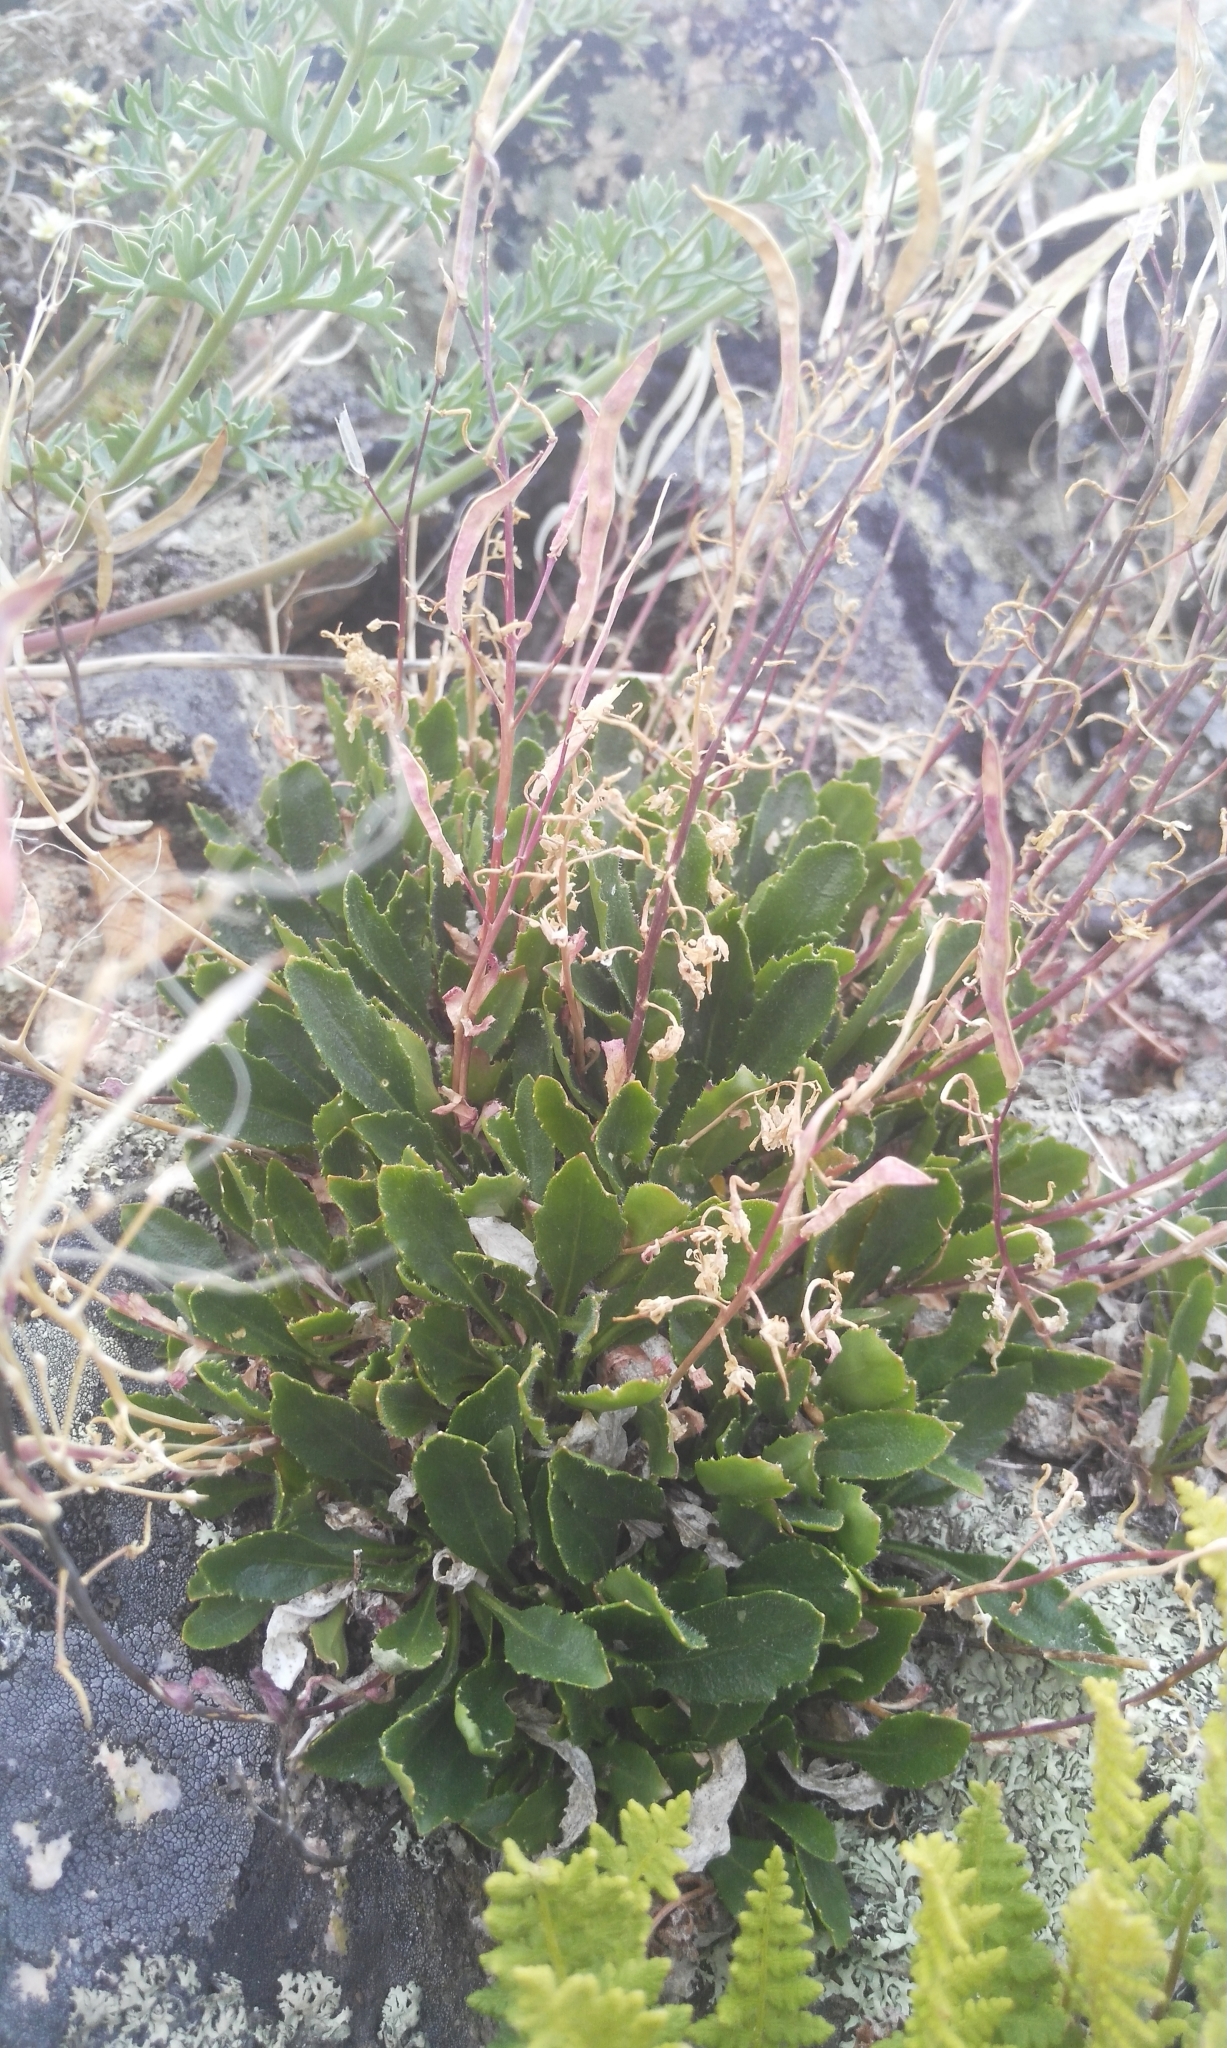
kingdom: Plantae
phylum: Tracheophyta
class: Magnoliopsida
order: Brassicales
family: Brassicaceae
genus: Borodinia
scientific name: Borodinia macrophylla
